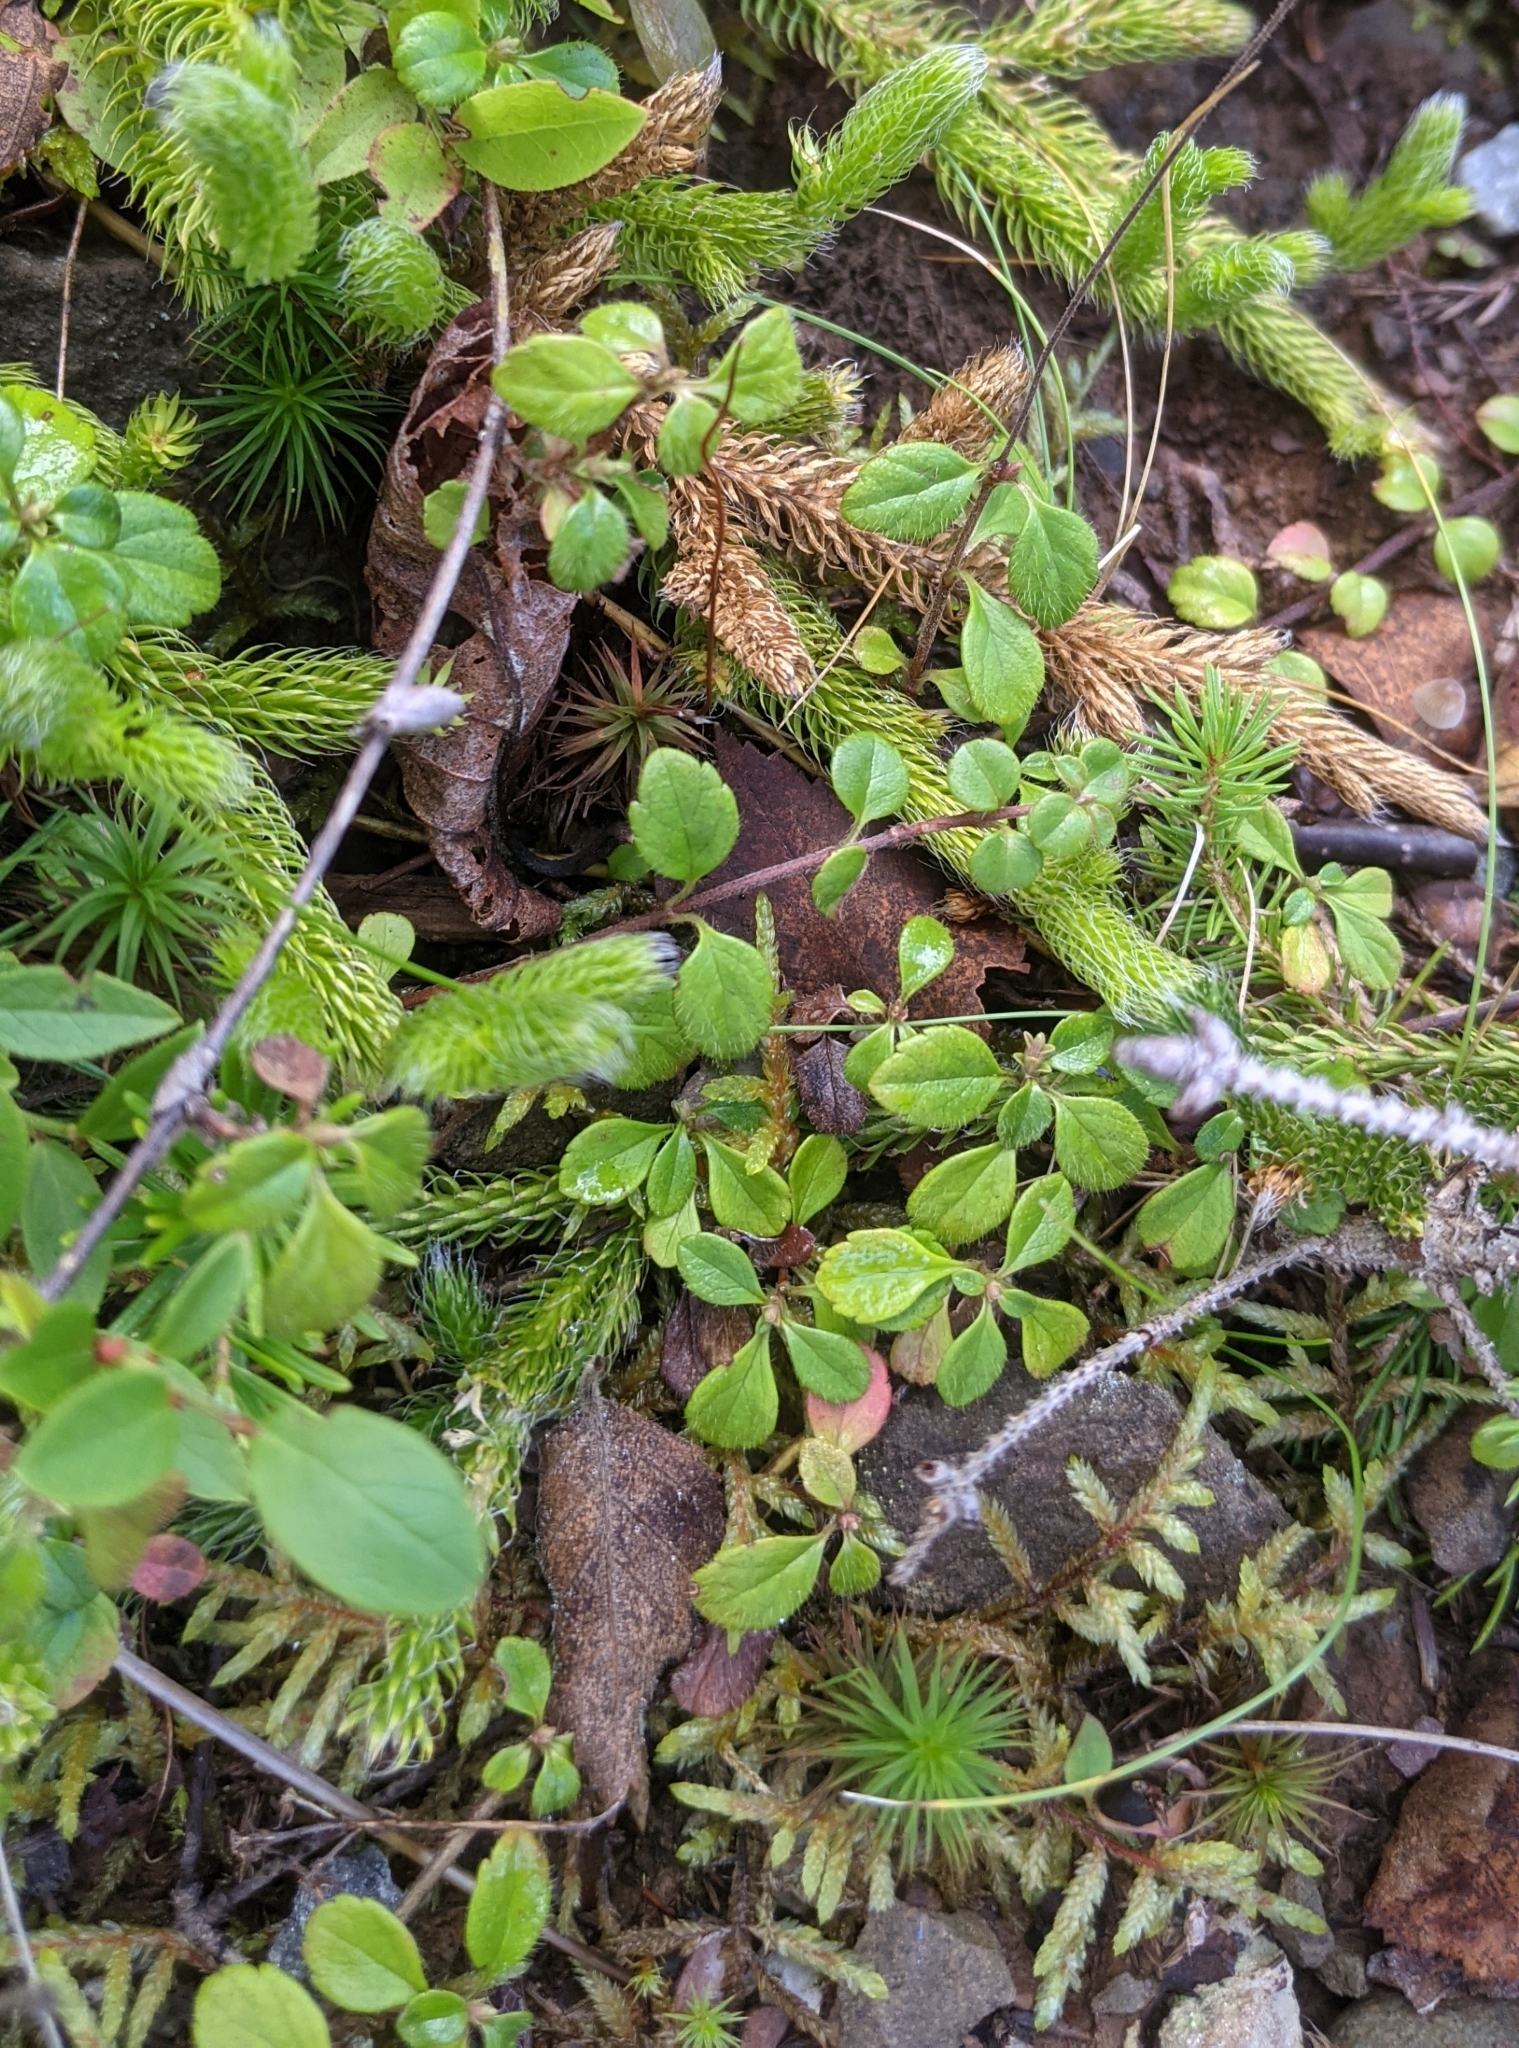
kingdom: Plantae
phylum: Tracheophyta
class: Magnoliopsida
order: Dipsacales
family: Caprifoliaceae
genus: Linnaea
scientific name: Linnaea borealis
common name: Twinflower
